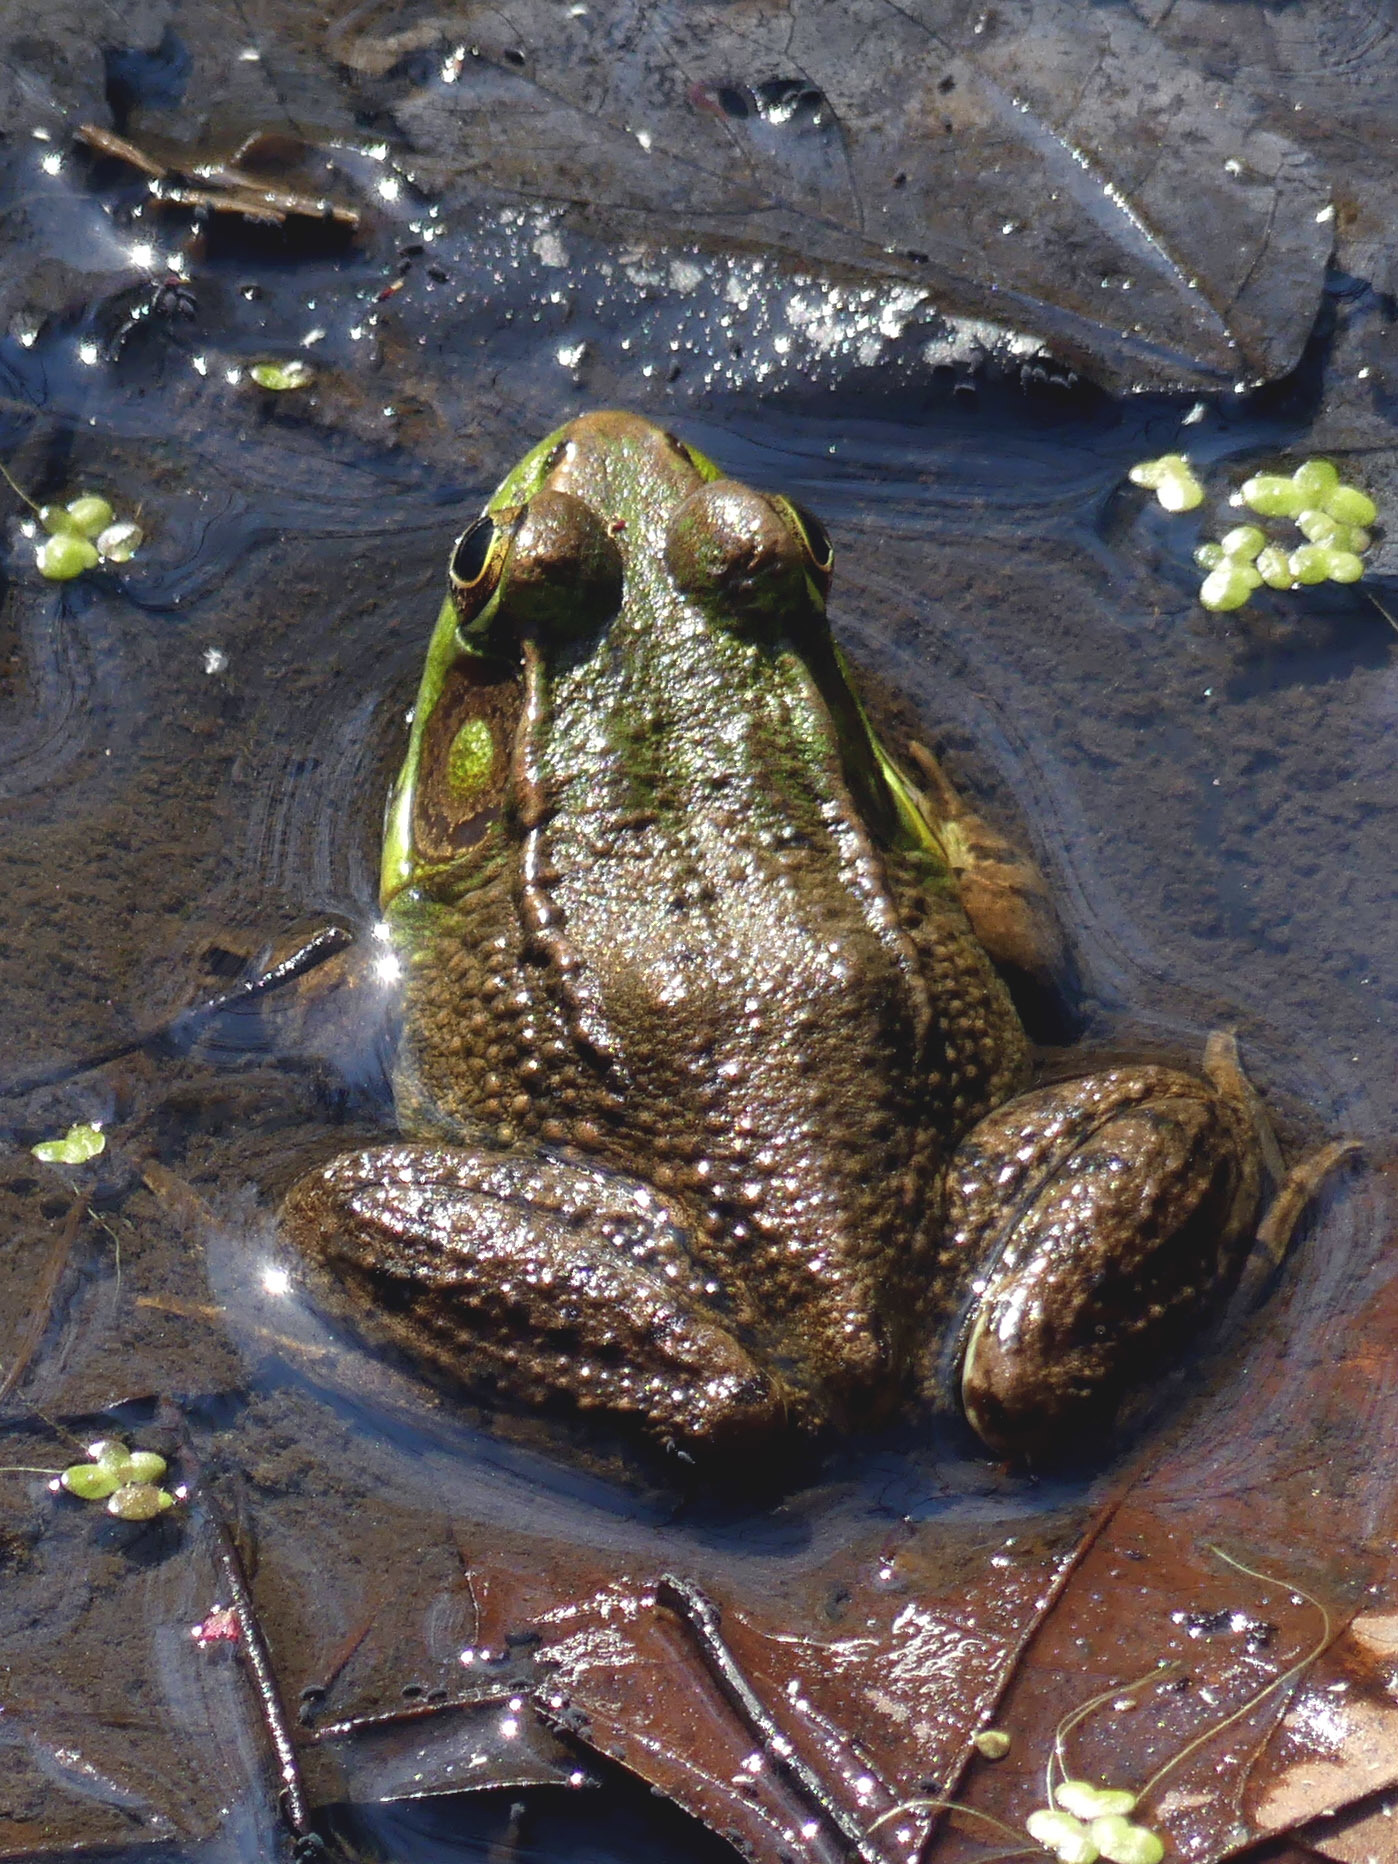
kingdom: Animalia
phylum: Chordata
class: Amphibia
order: Anura
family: Ranidae
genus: Lithobates
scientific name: Lithobates clamitans
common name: Green frog
